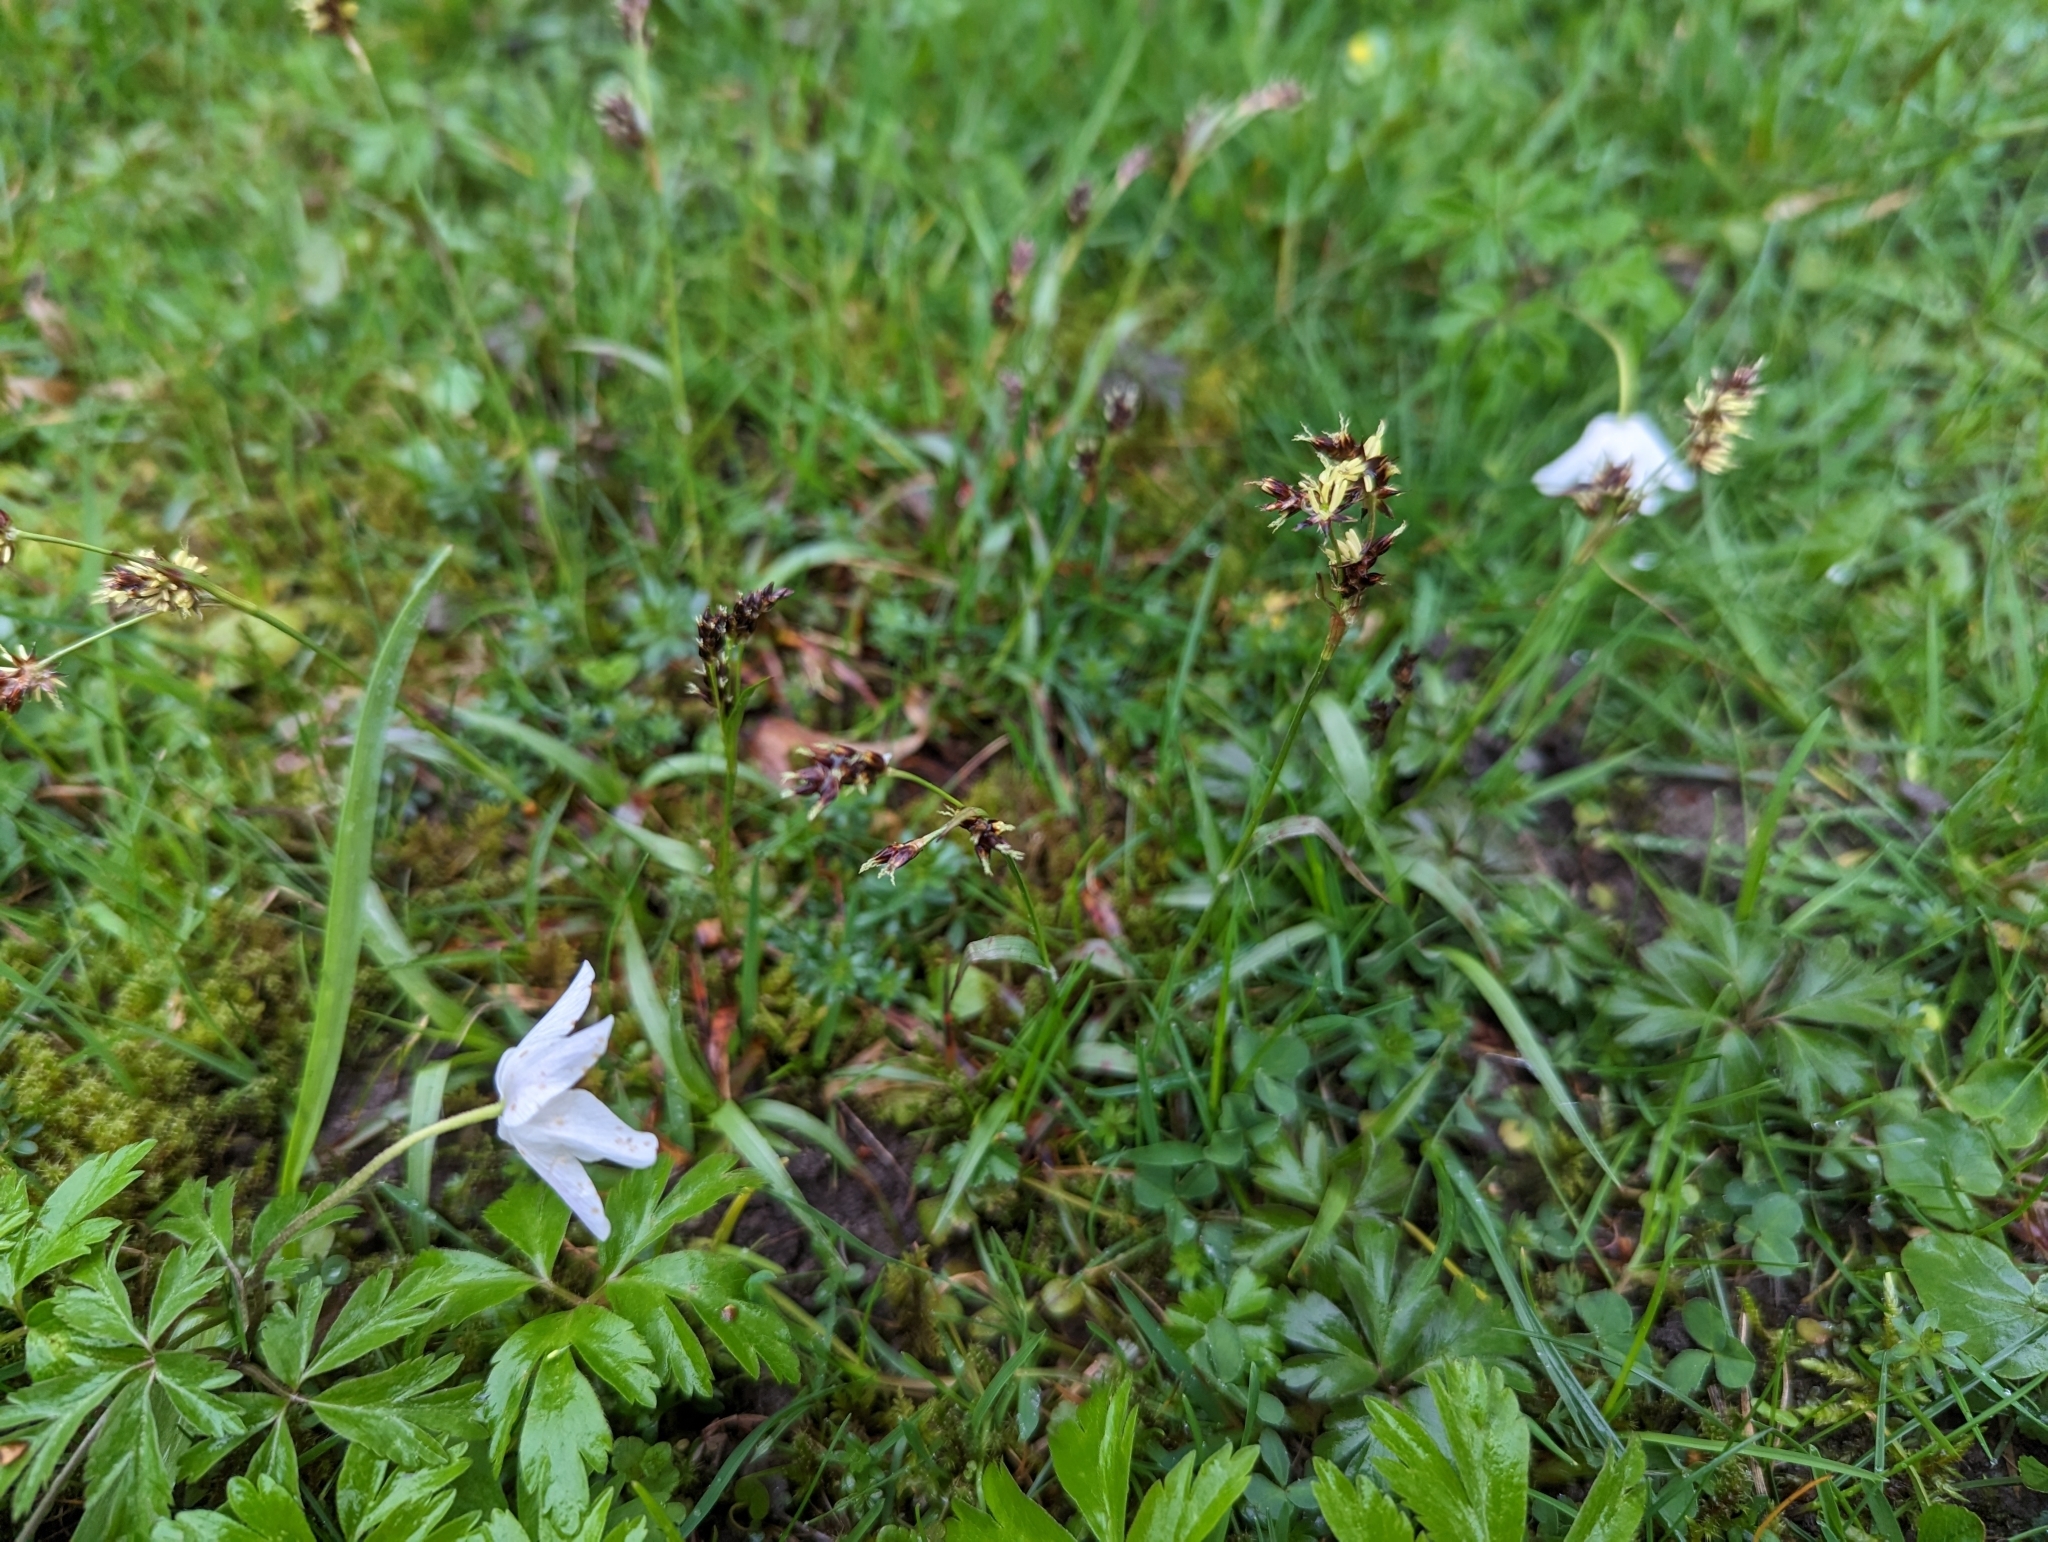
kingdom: Plantae
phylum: Tracheophyta
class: Liliopsida
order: Poales
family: Juncaceae
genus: Luzula
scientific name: Luzula campestris
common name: Field wood-rush
